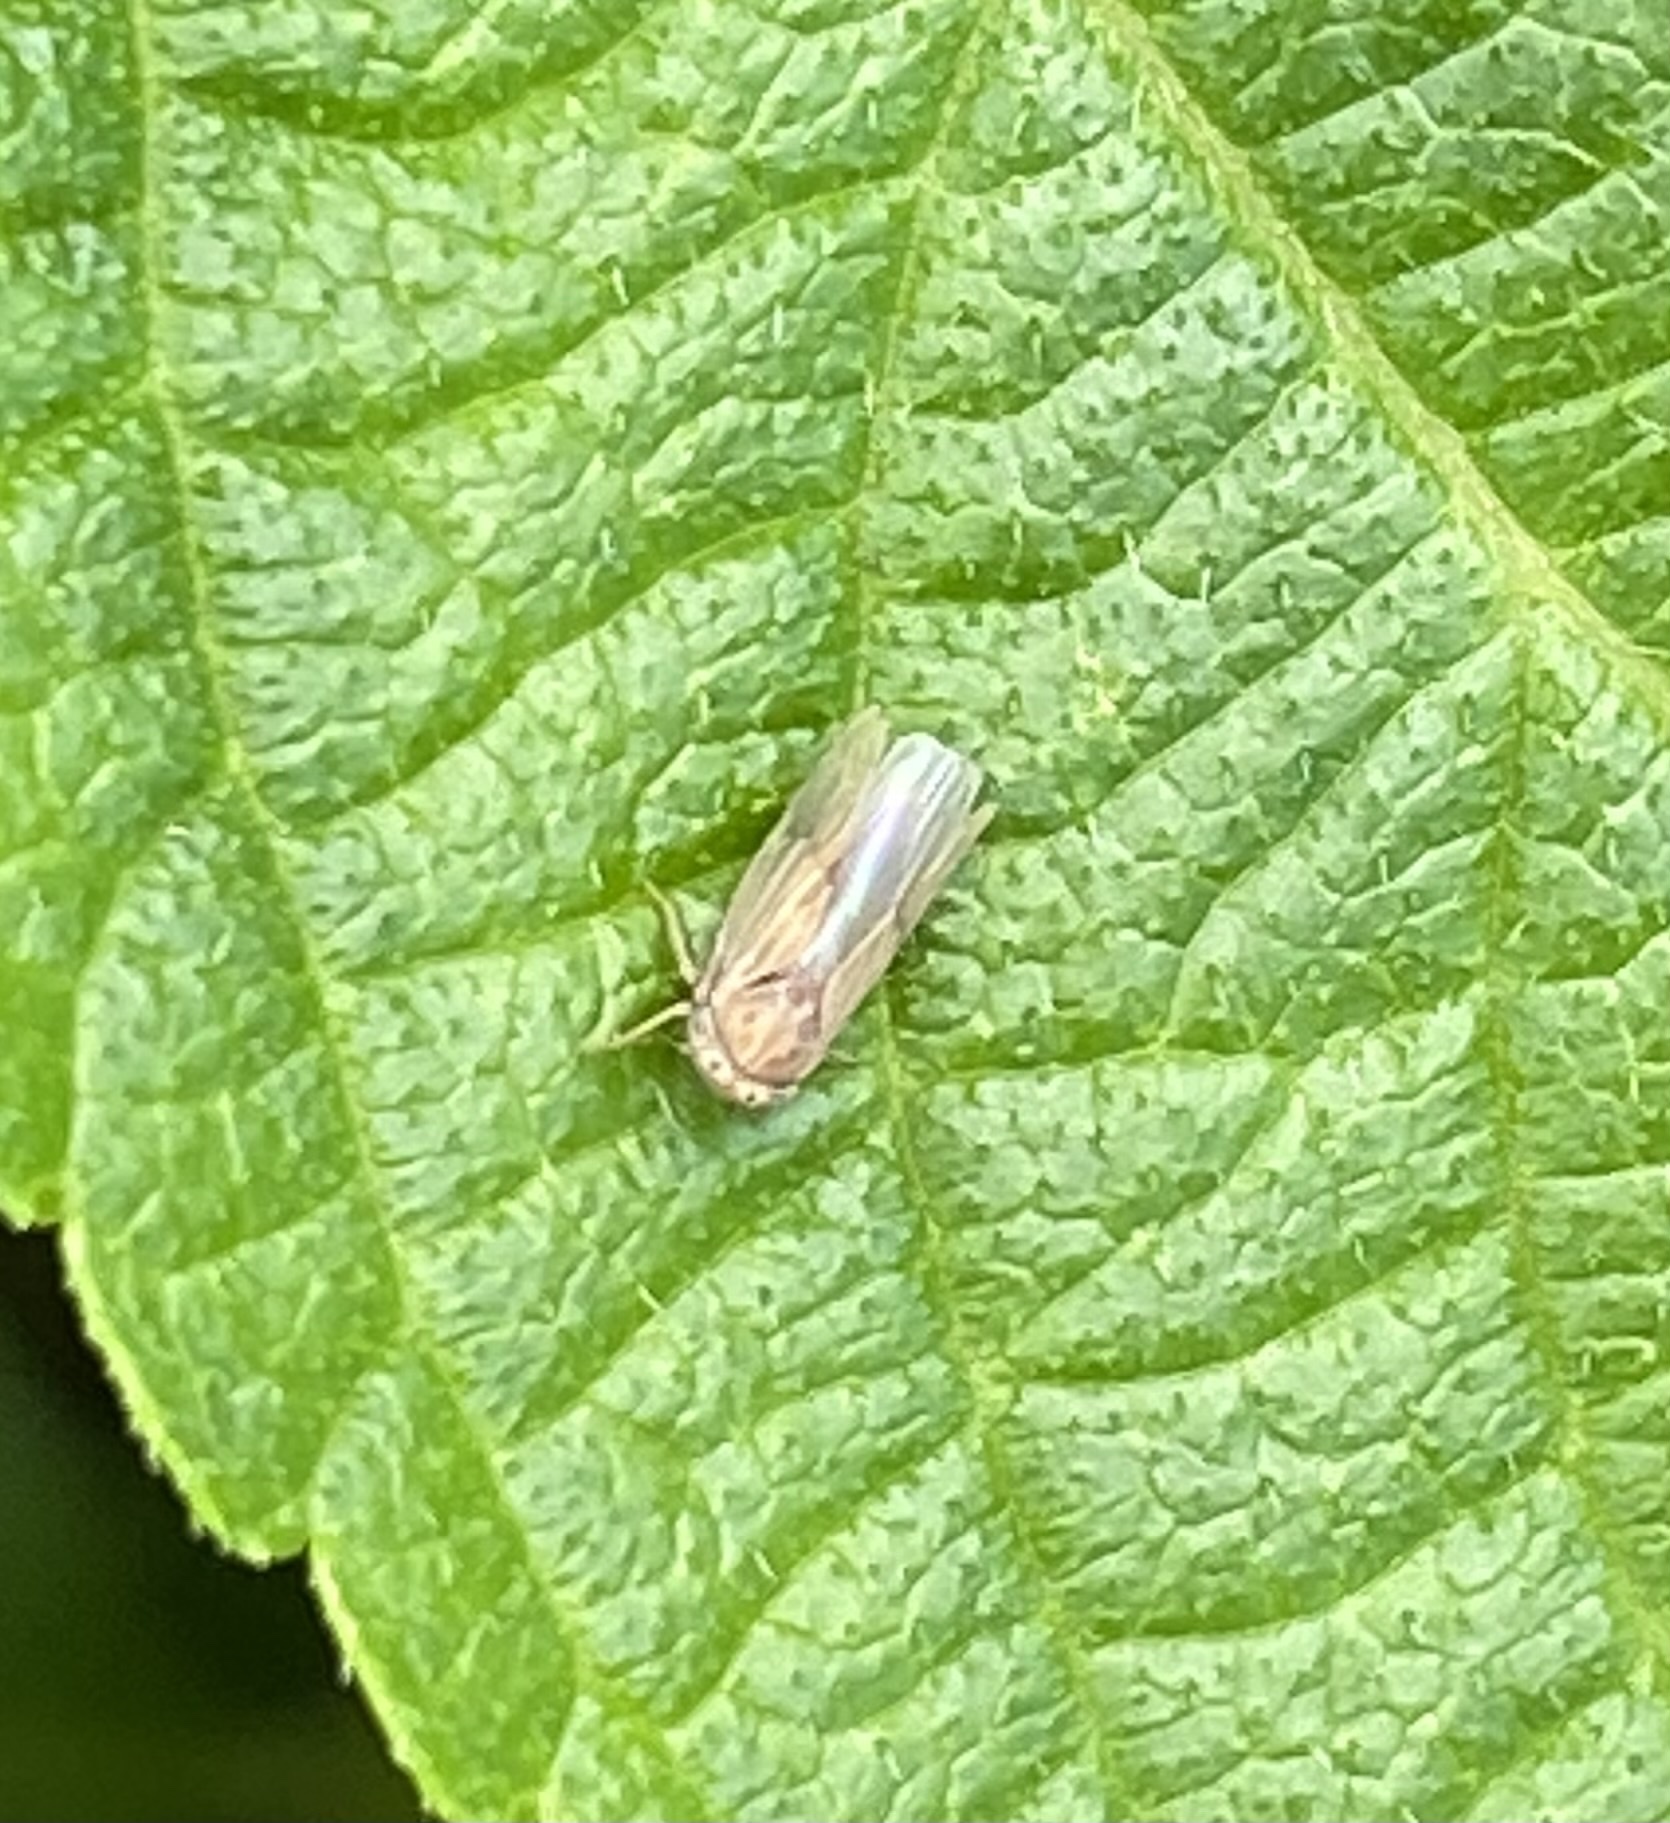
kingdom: Animalia
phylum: Arthropoda
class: Insecta
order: Hemiptera
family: Cicadellidae
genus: Agallia
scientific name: Agallia constricta
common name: The constricted leafhopper
